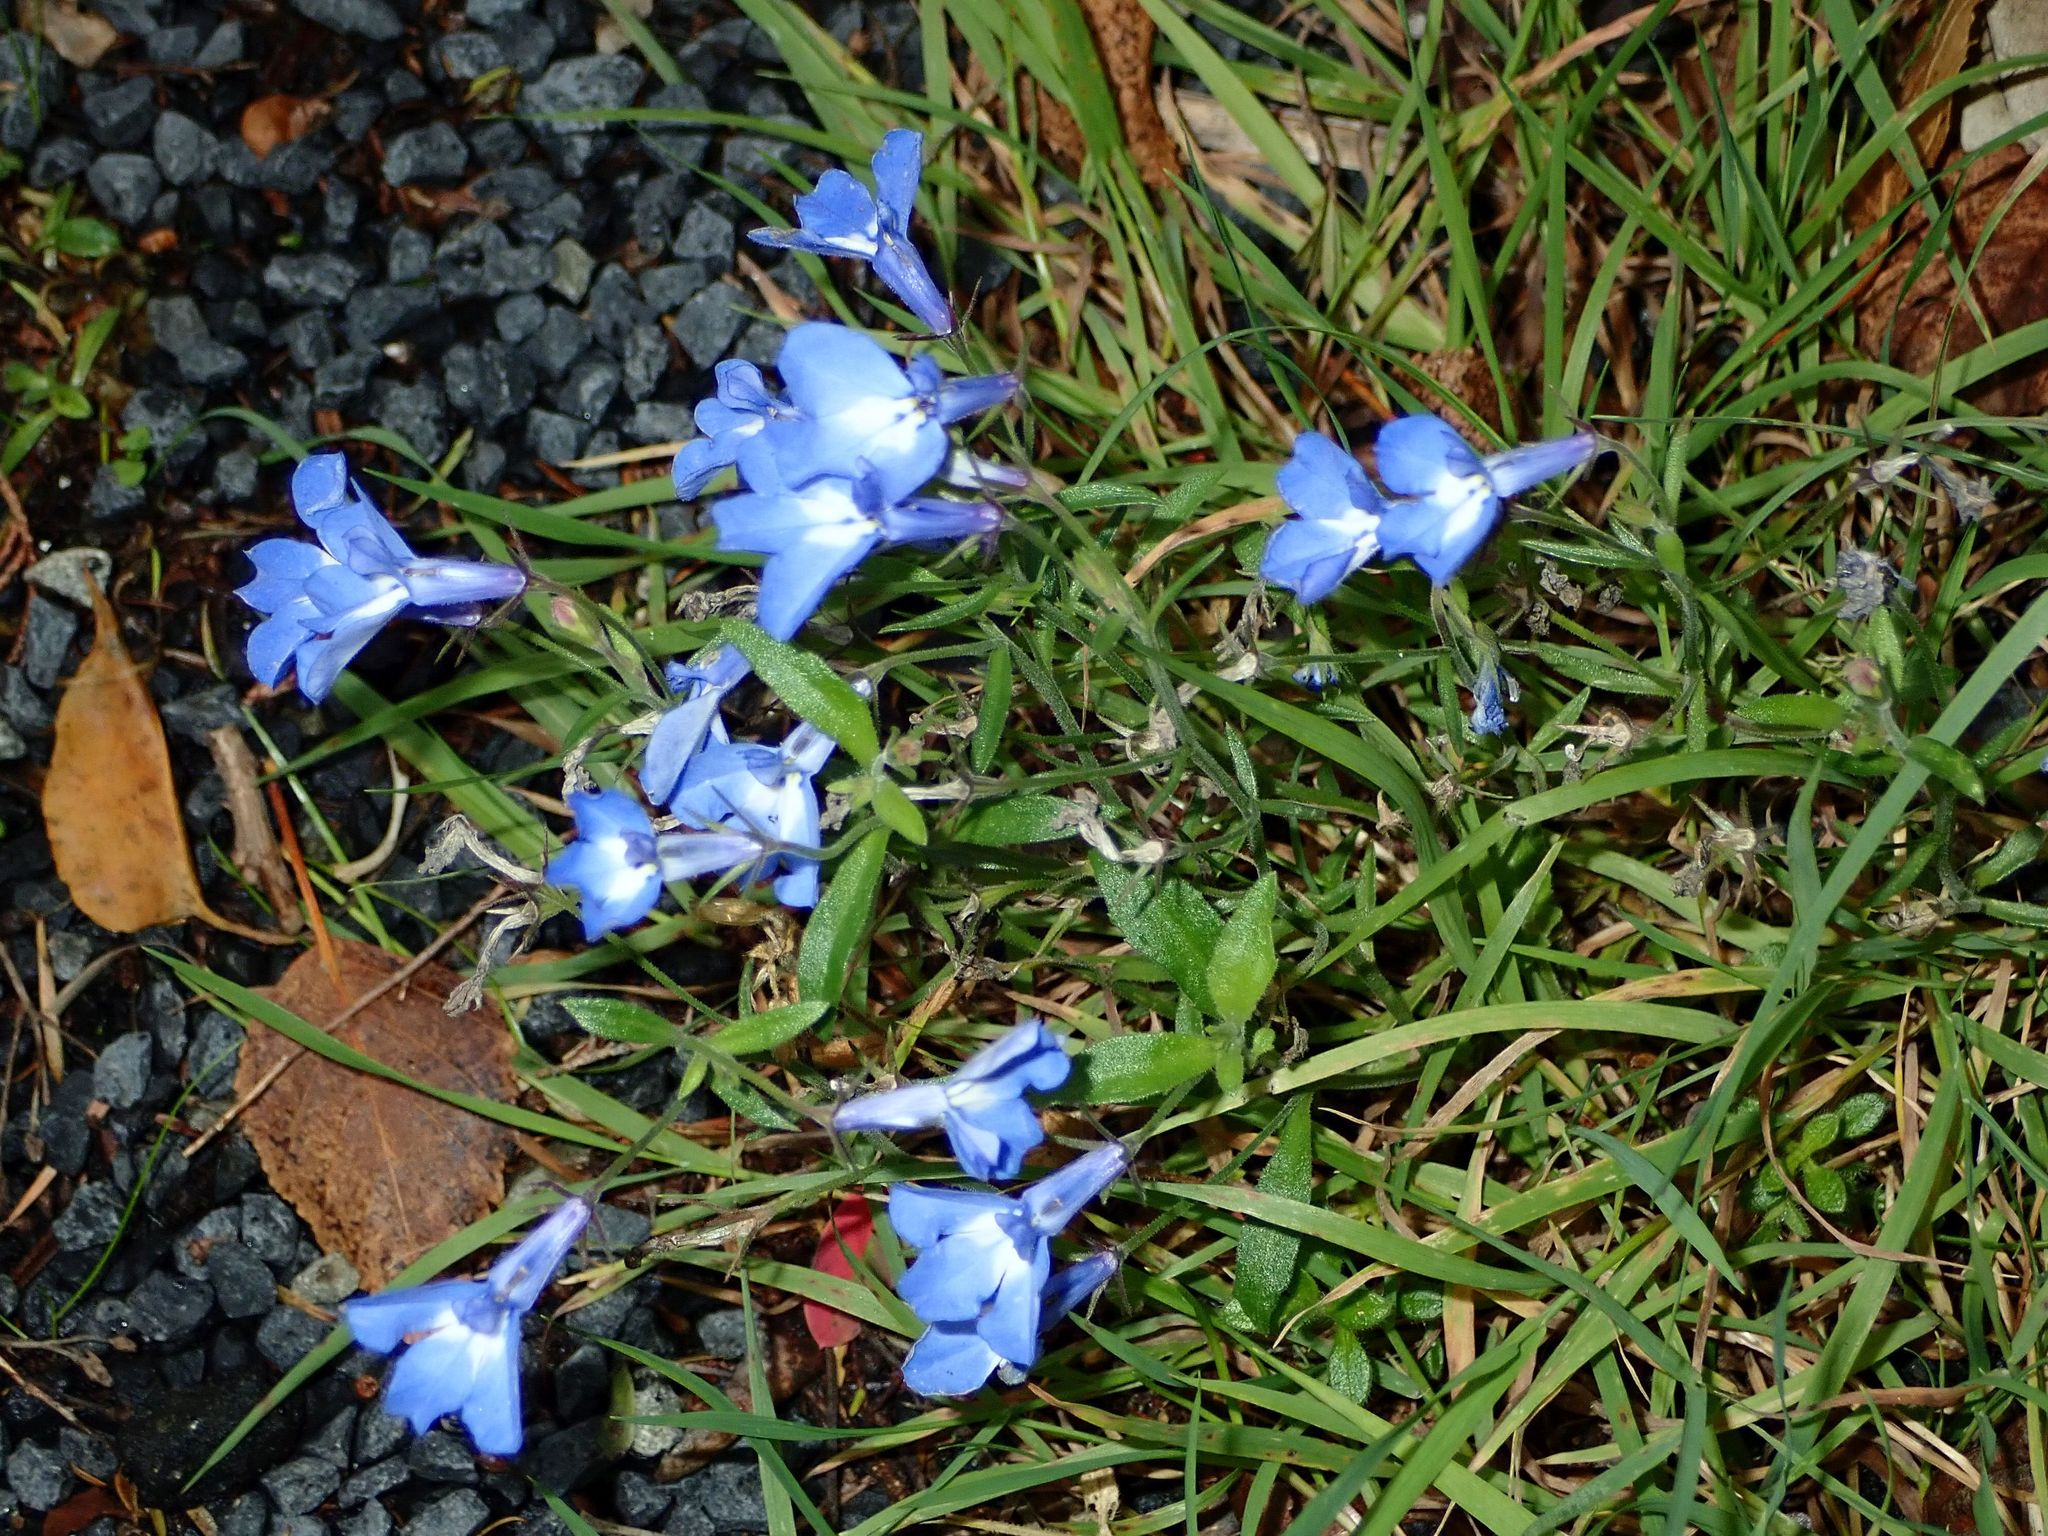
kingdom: Plantae
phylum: Tracheophyta
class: Magnoliopsida
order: Asterales
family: Campanulaceae
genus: Lobelia
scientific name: Lobelia erinus
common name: Edging lobelia
